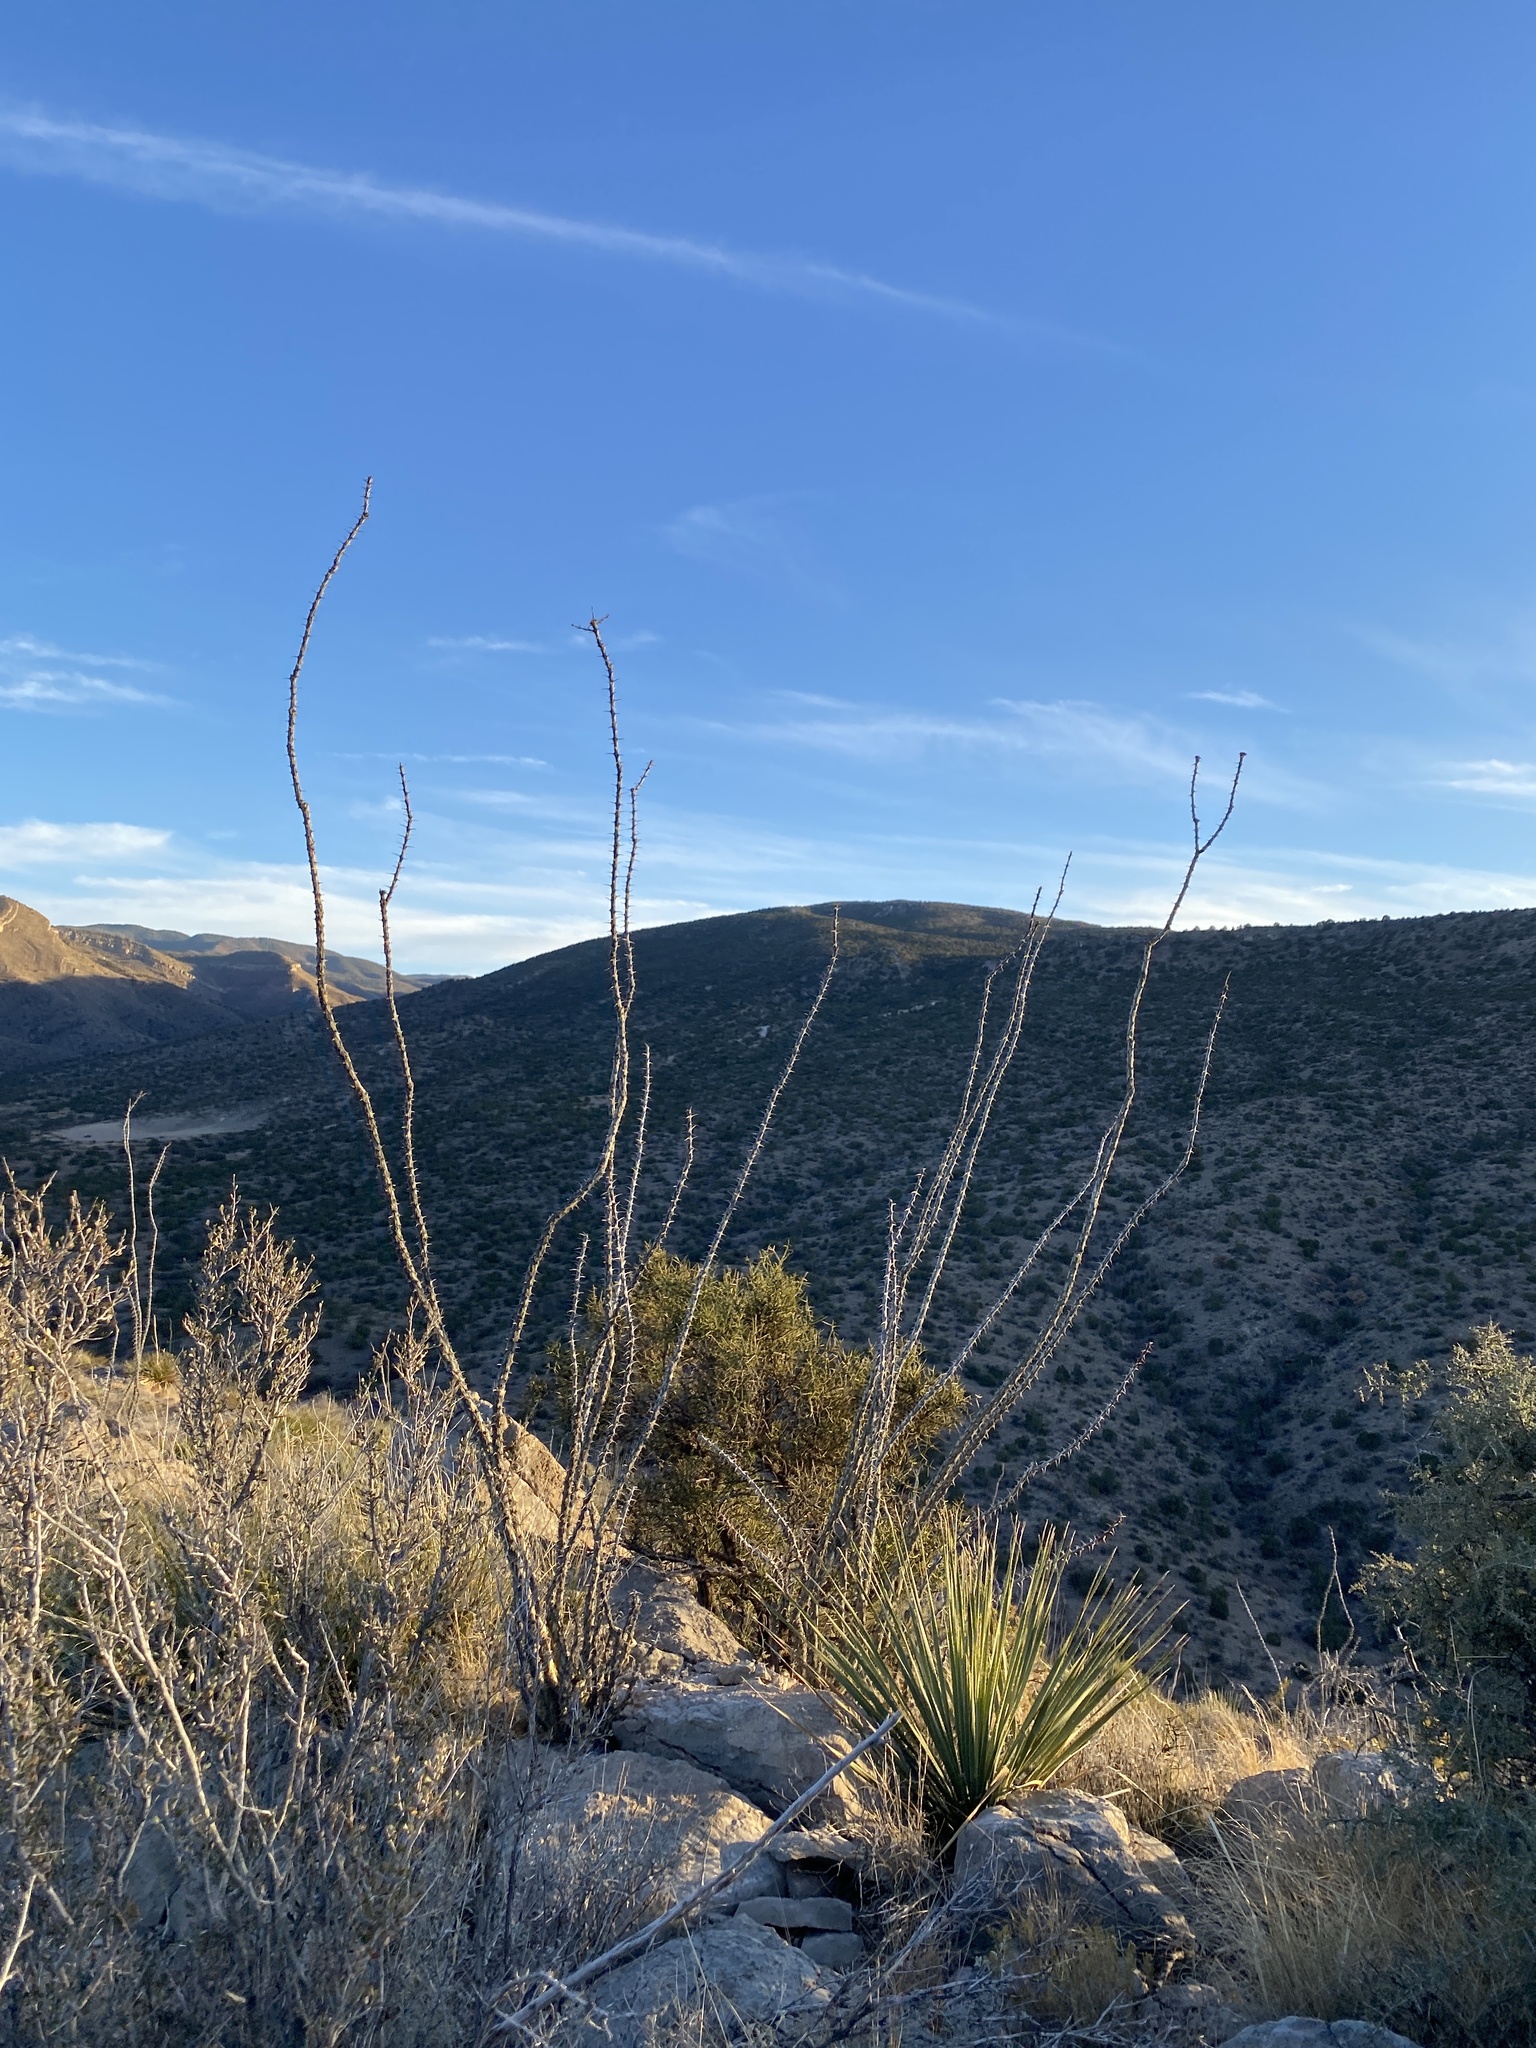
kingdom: Plantae
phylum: Tracheophyta
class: Magnoliopsida
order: Ericales
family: Fouquieriaceae
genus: Fouquieria
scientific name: Fouquieria splendens
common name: Vine-cactus
